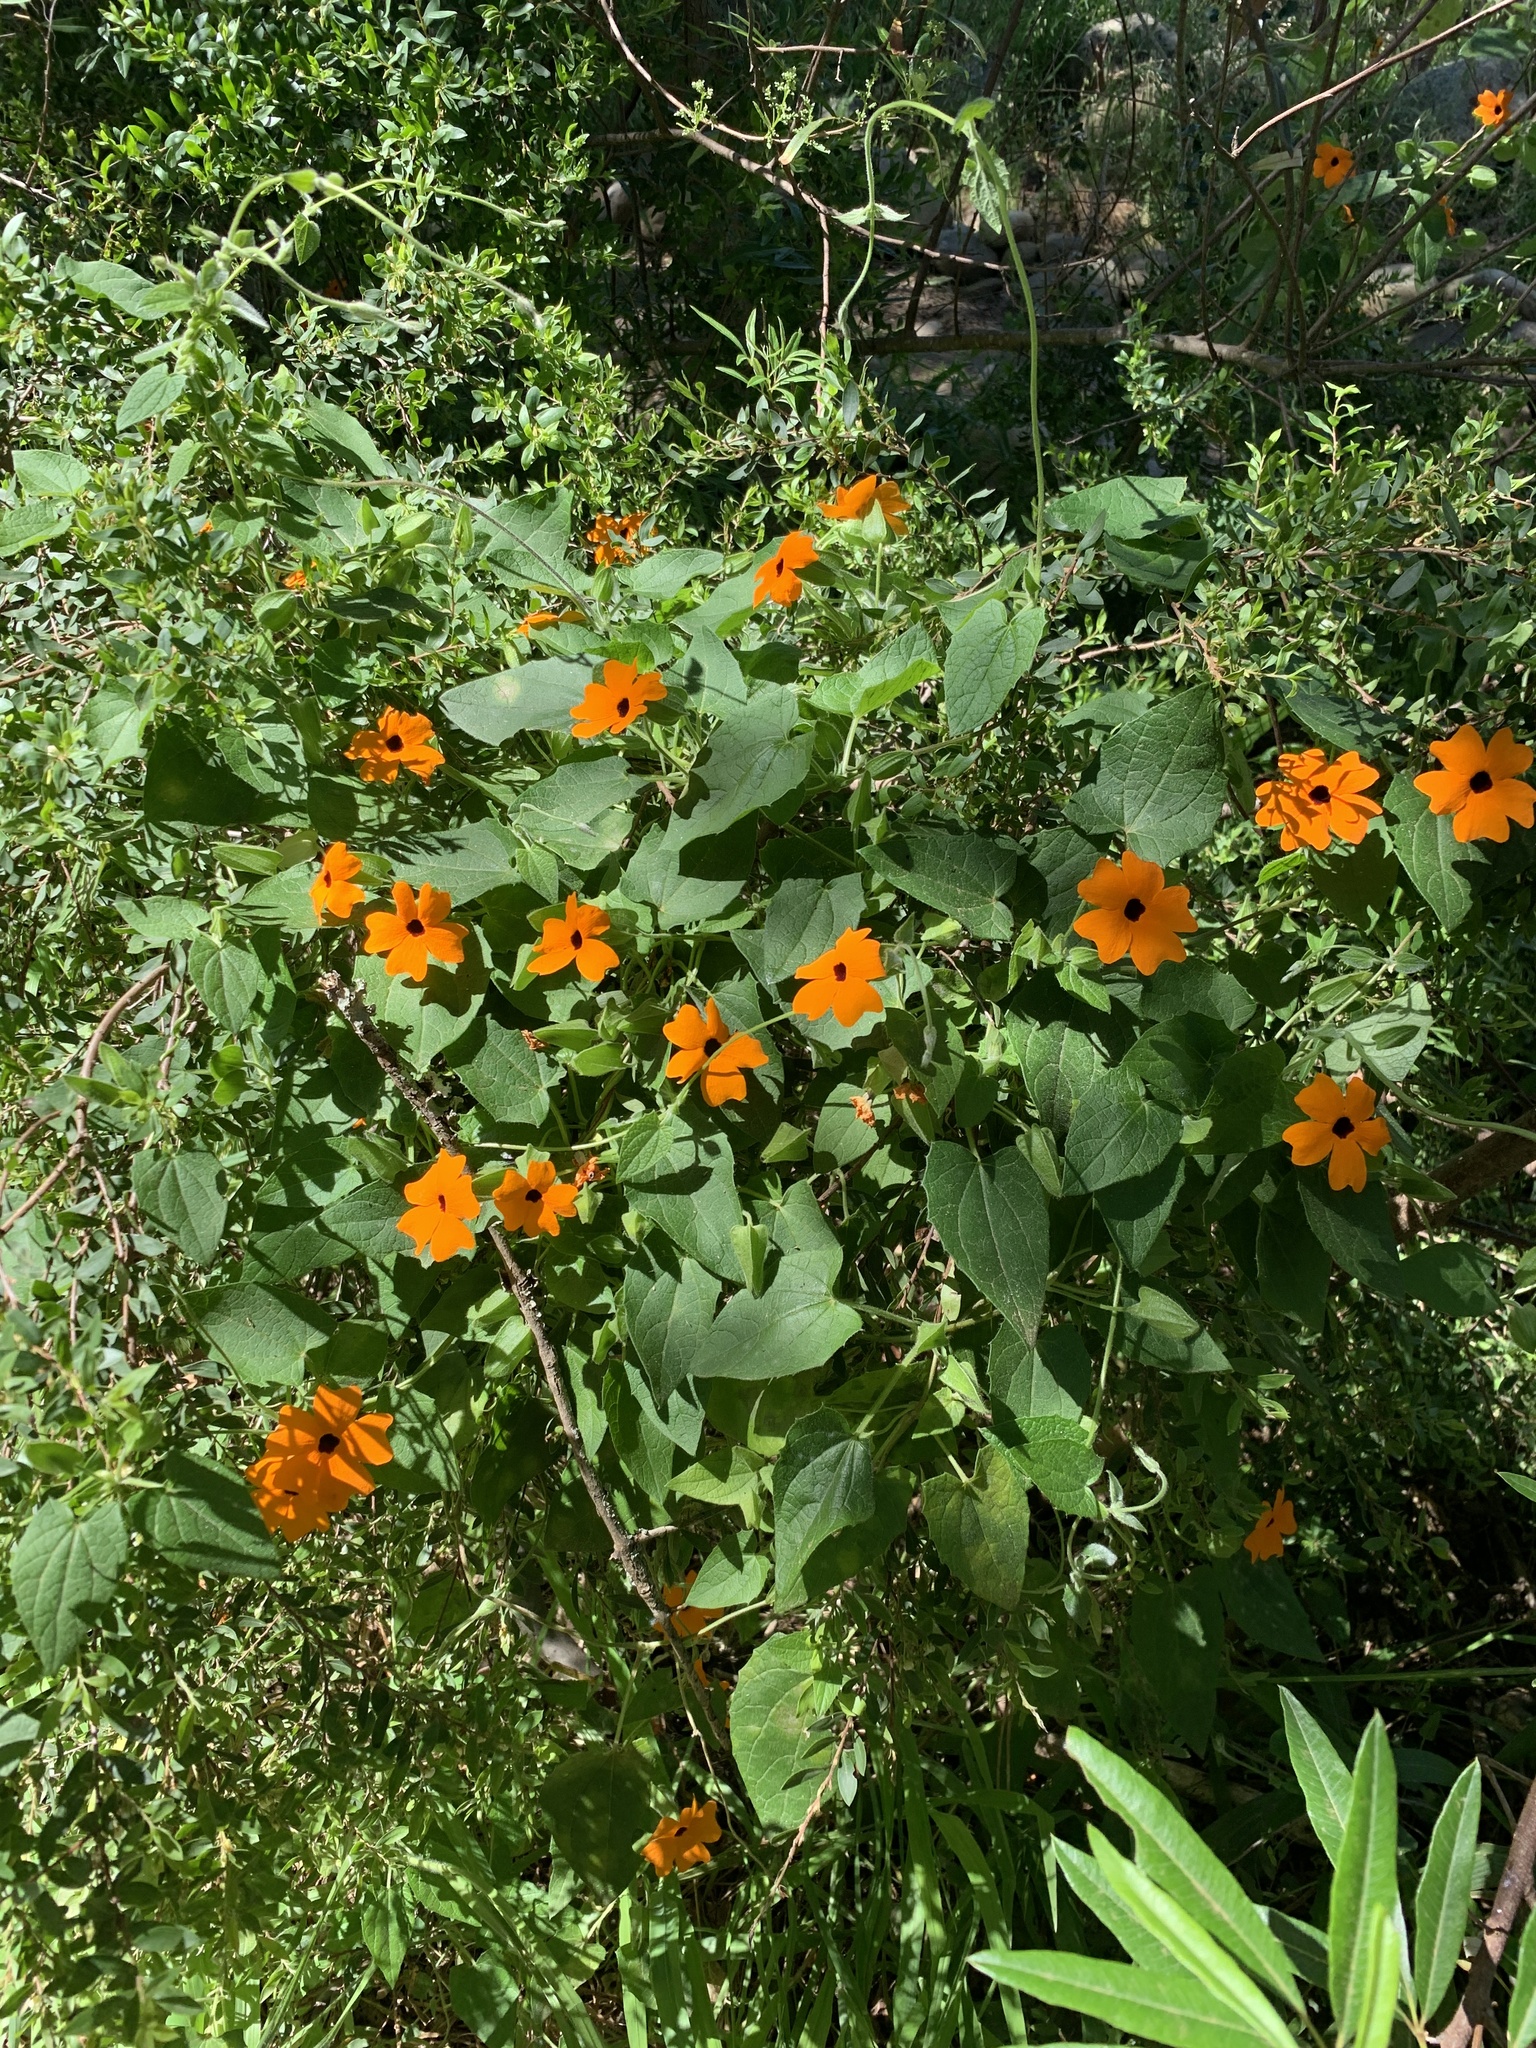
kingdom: Plantae
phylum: Tracheophyta
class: Magnoliopsida
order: Lamiales
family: Acanthaceae
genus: Thunbergia
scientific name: Thunbergia alata
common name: Blackeyed susan vine
